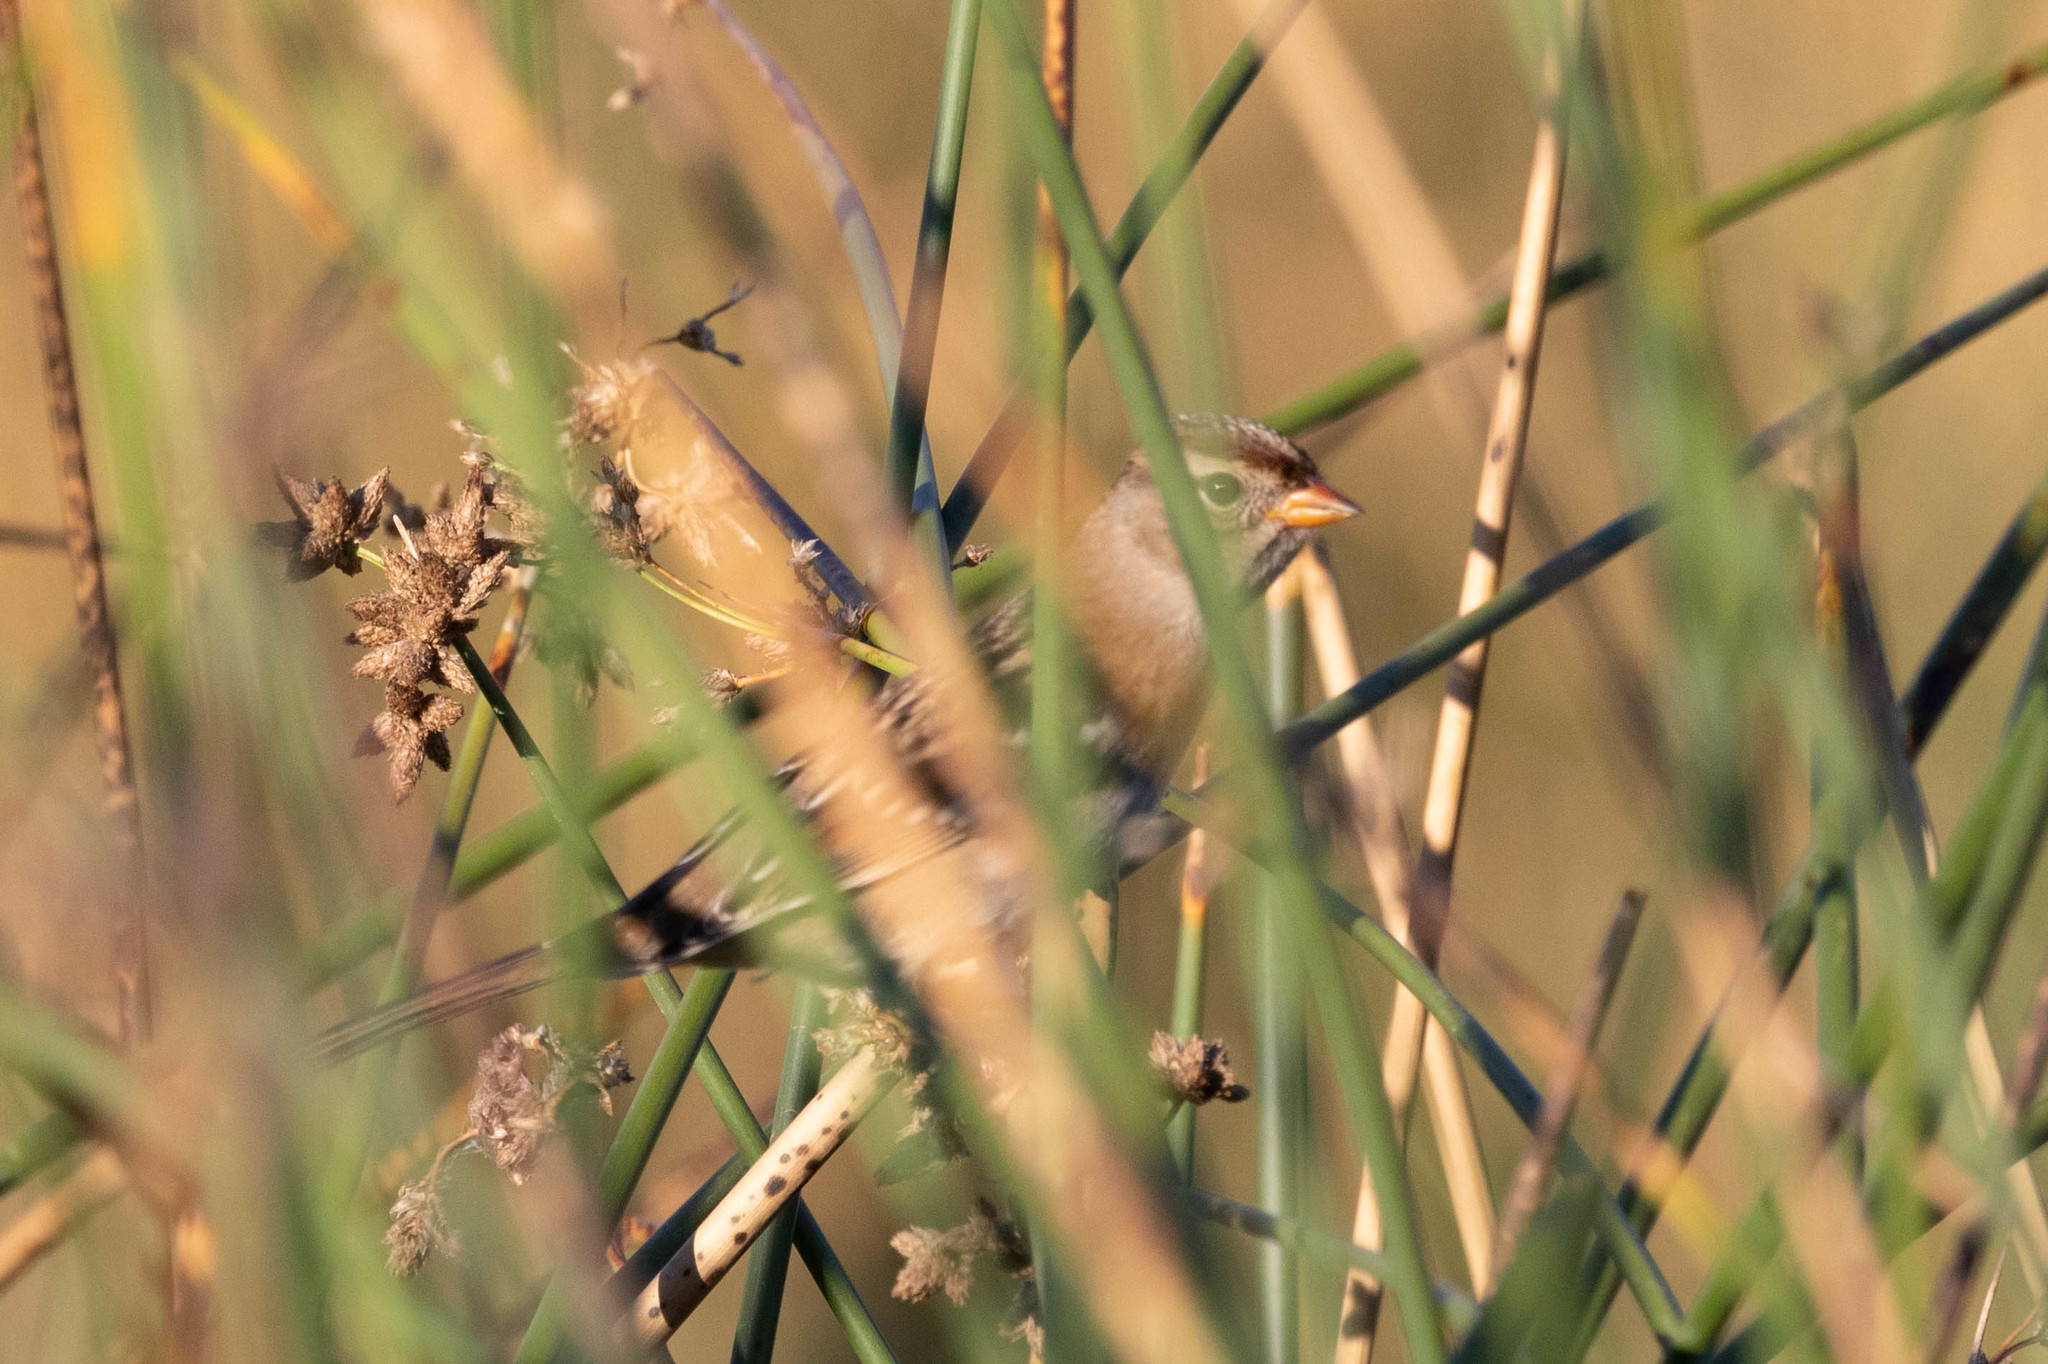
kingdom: Animalia
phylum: Chordata
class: Aves
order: Passeriformes
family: Passerellidae
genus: Zonotrichia
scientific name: Zonotrichia leucophrys
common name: White-crowned sparrow
